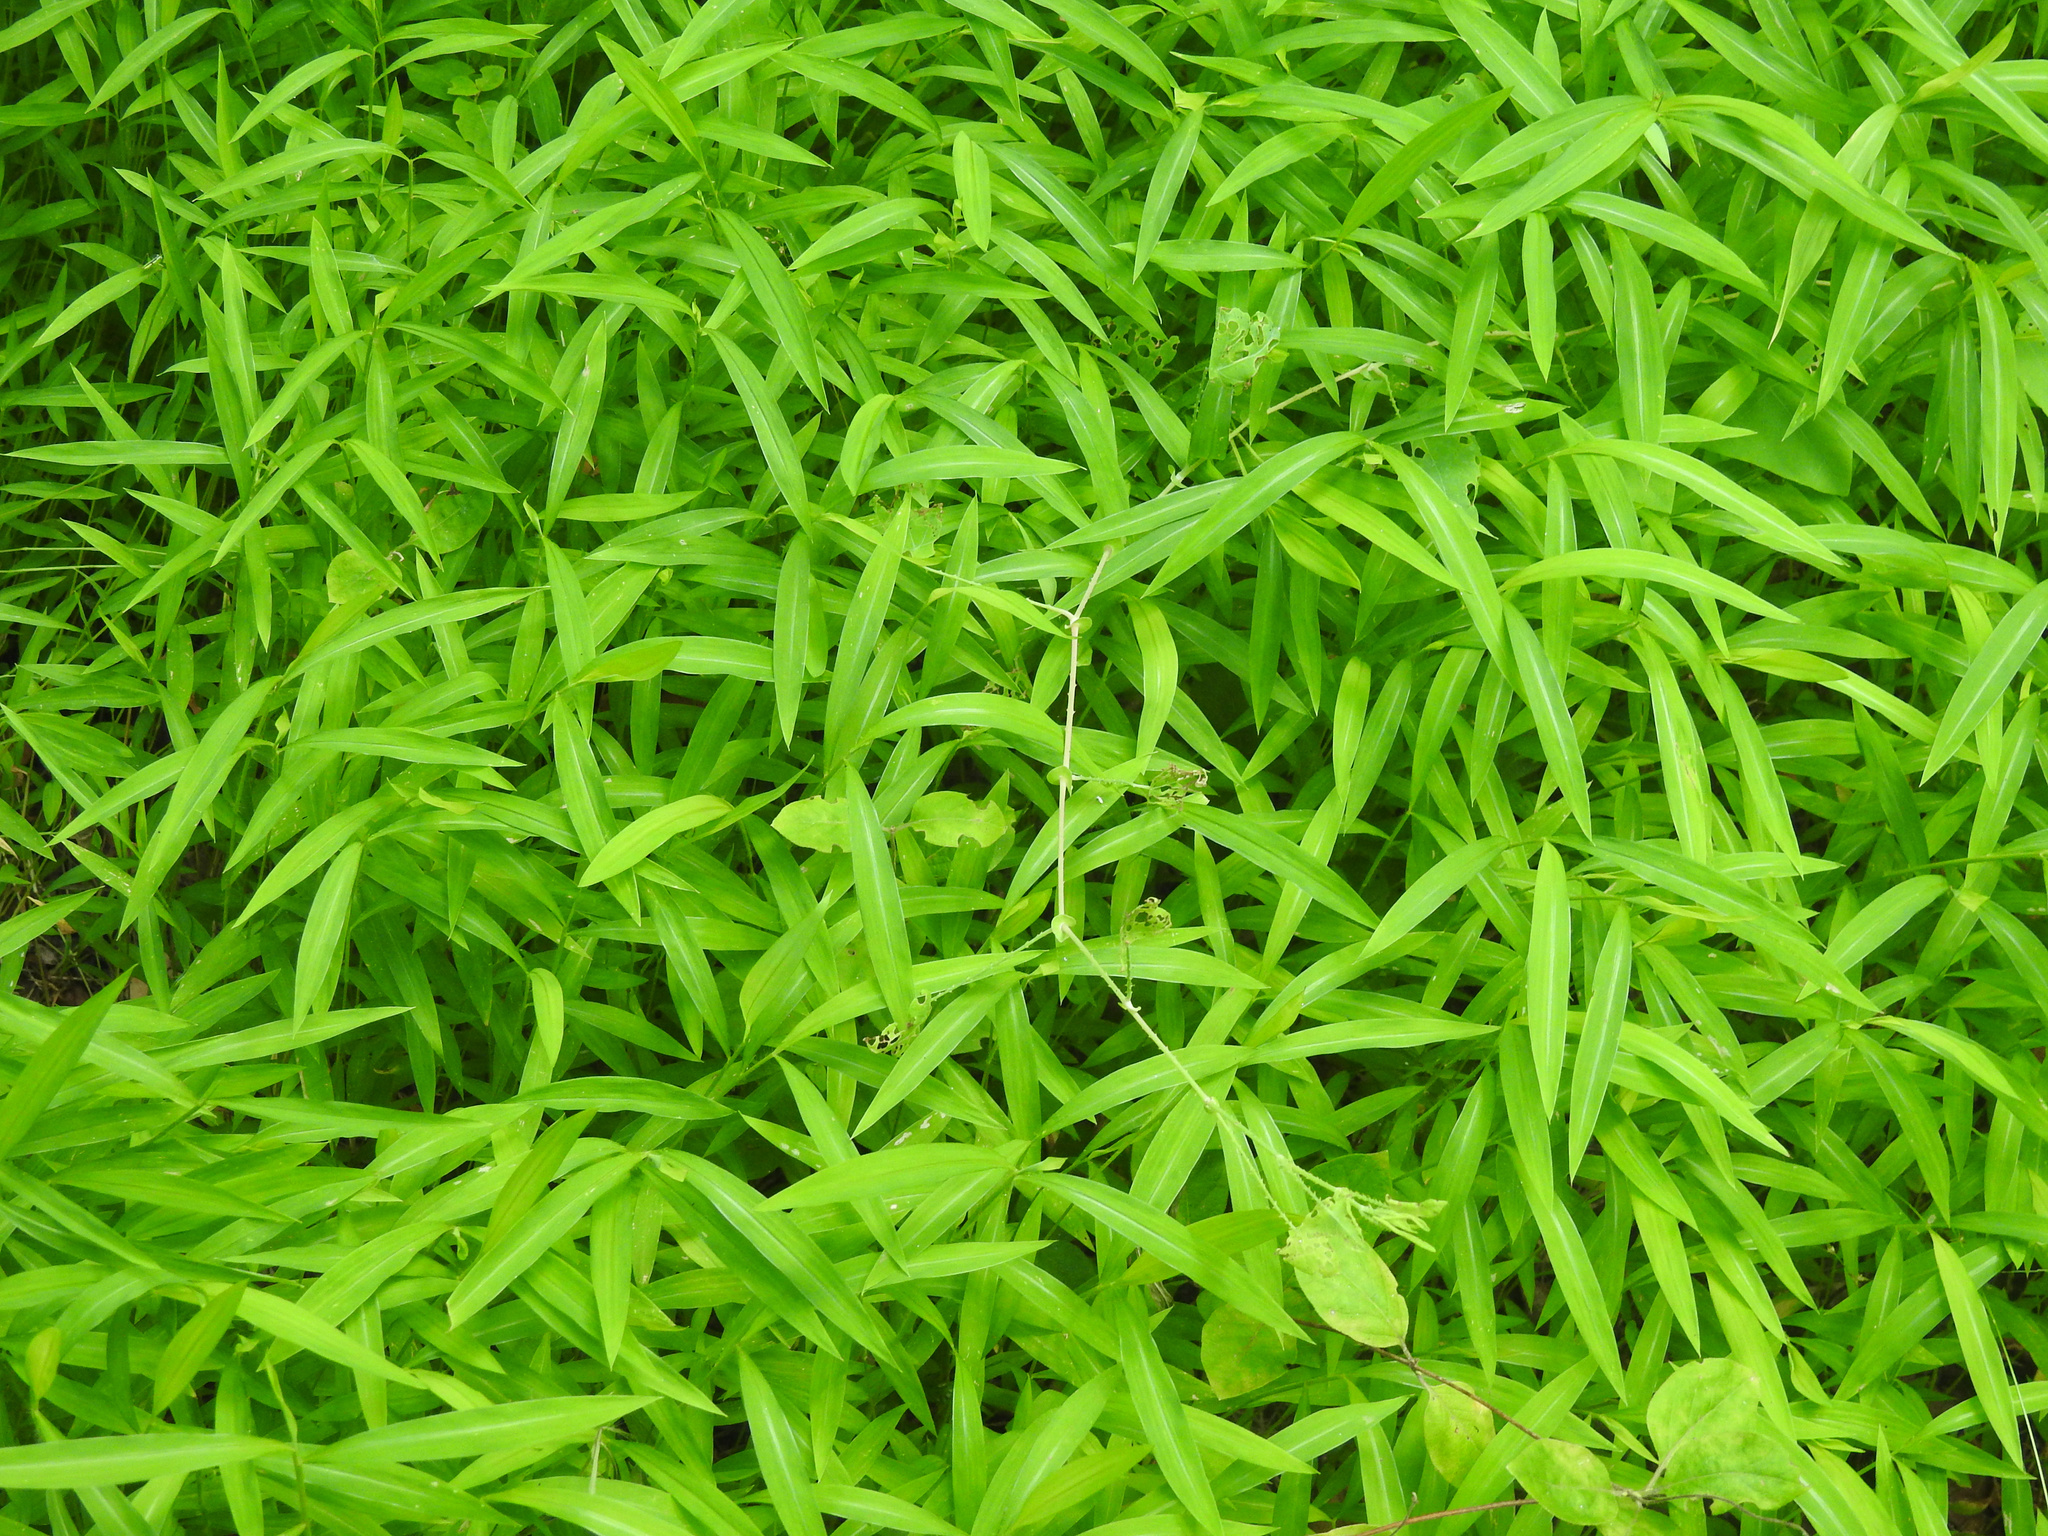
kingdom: Plantae
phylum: Tracheophyta
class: Liliopsida
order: Poales
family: Poaceae
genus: Microstegium
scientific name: Microstegium vimineum
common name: Japanese stiltgrass
